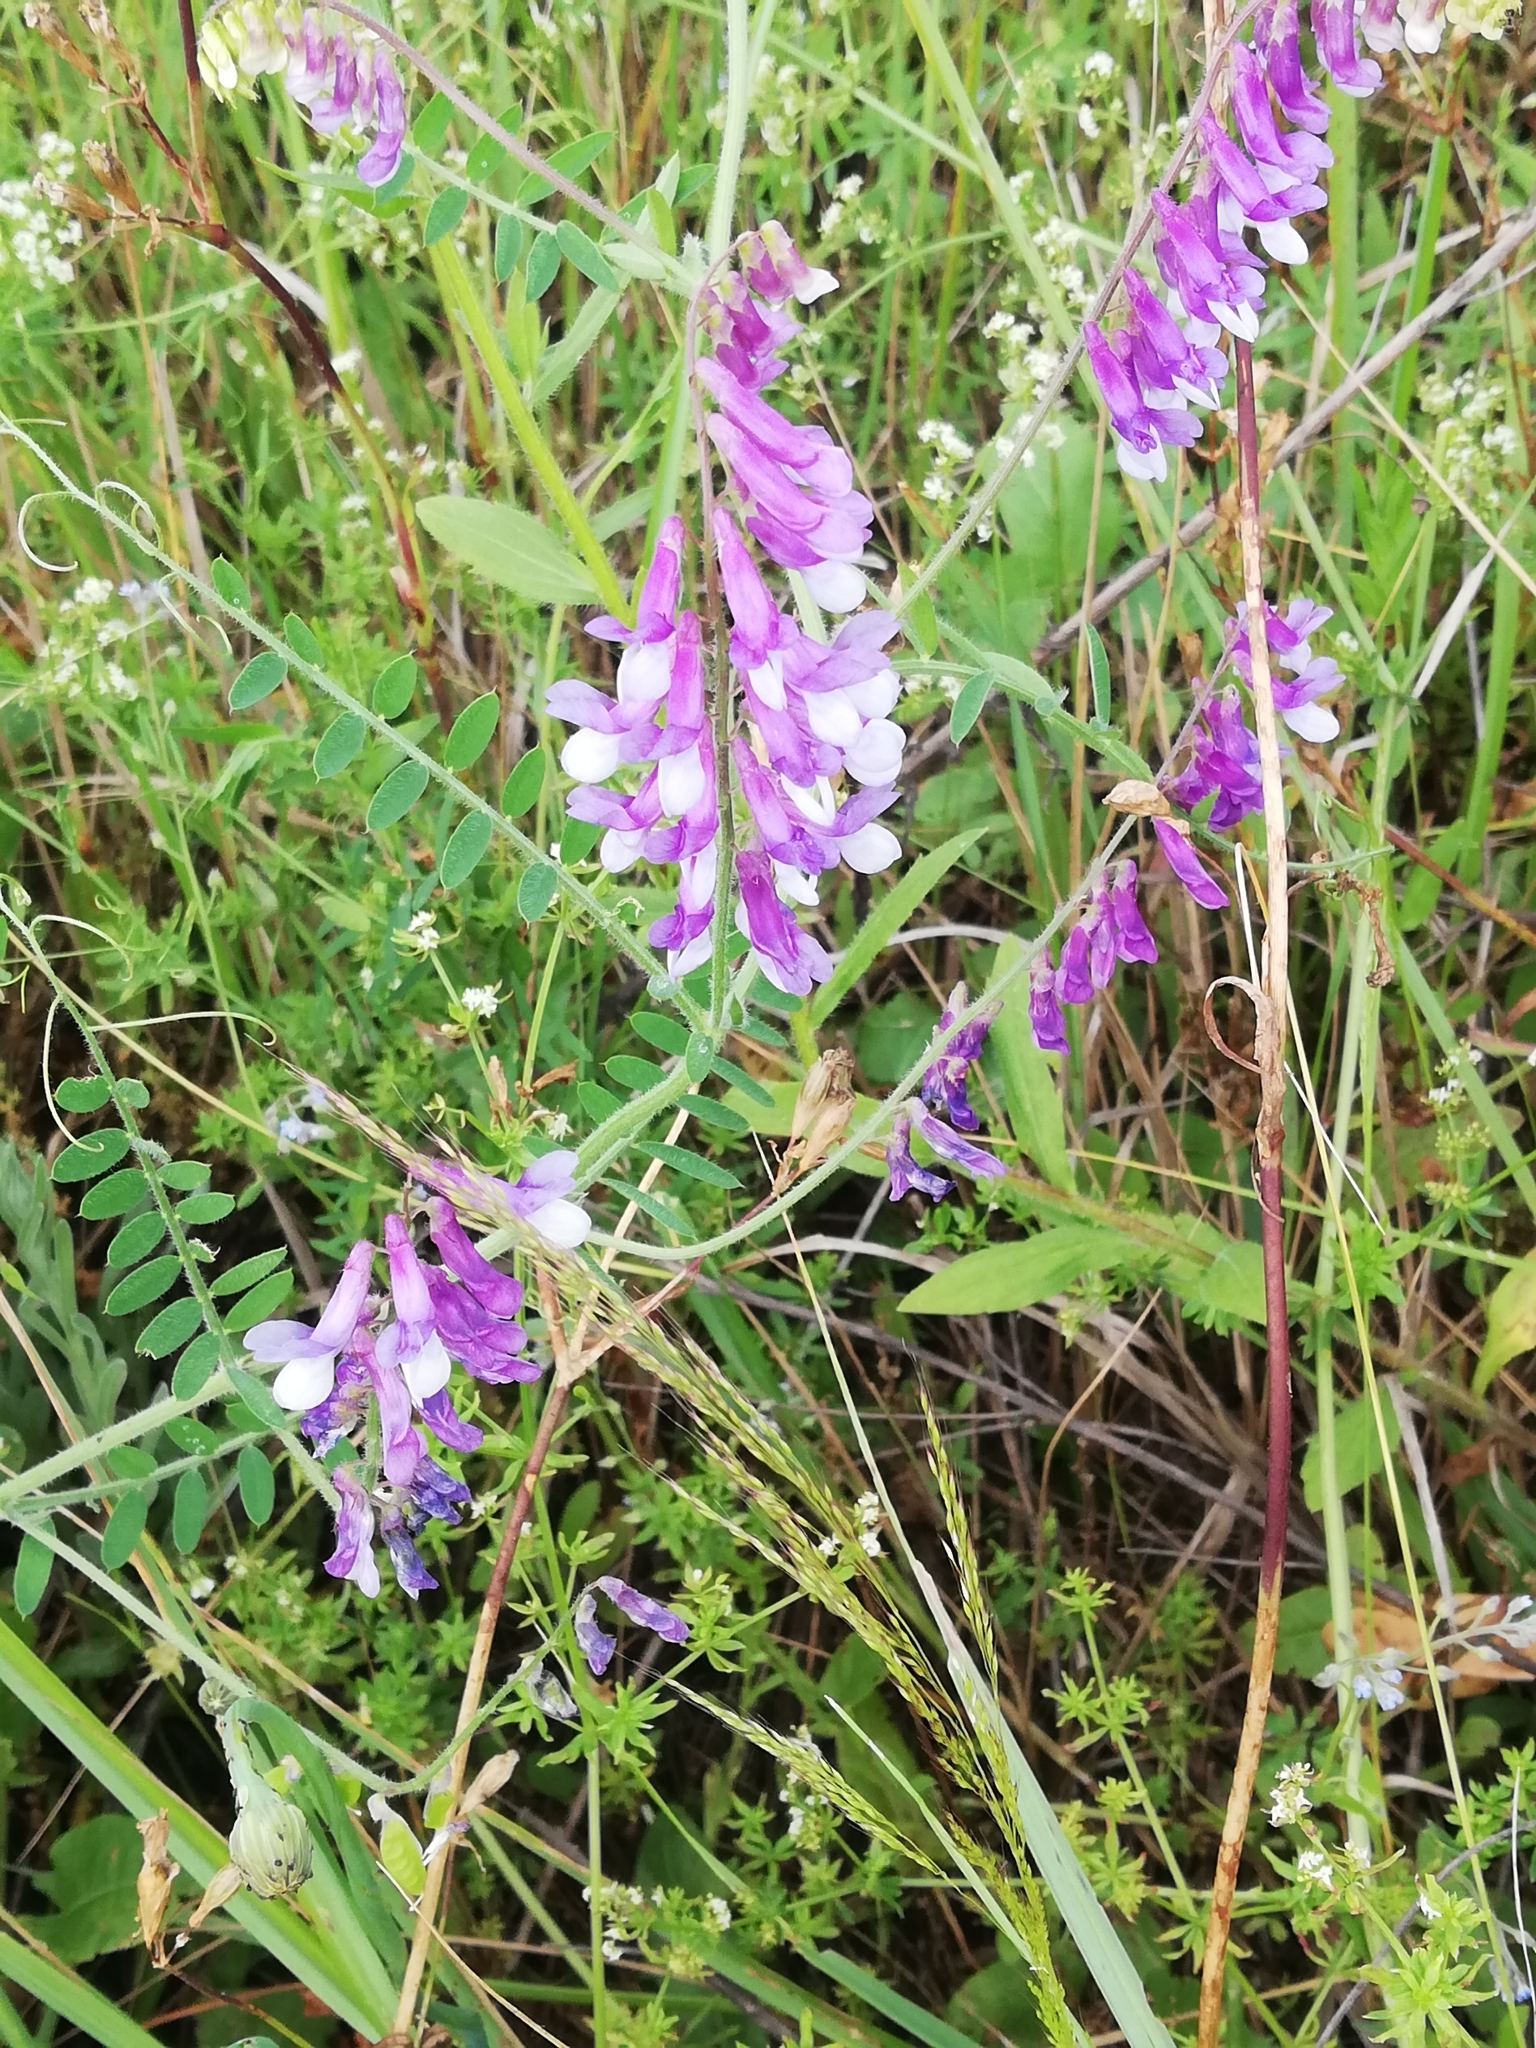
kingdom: Plantae
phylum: Tracheophyta
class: Magnoliopsida
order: Fabales
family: Fabaceae
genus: Vicia
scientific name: Vicia villosa
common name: Fodder vetch
